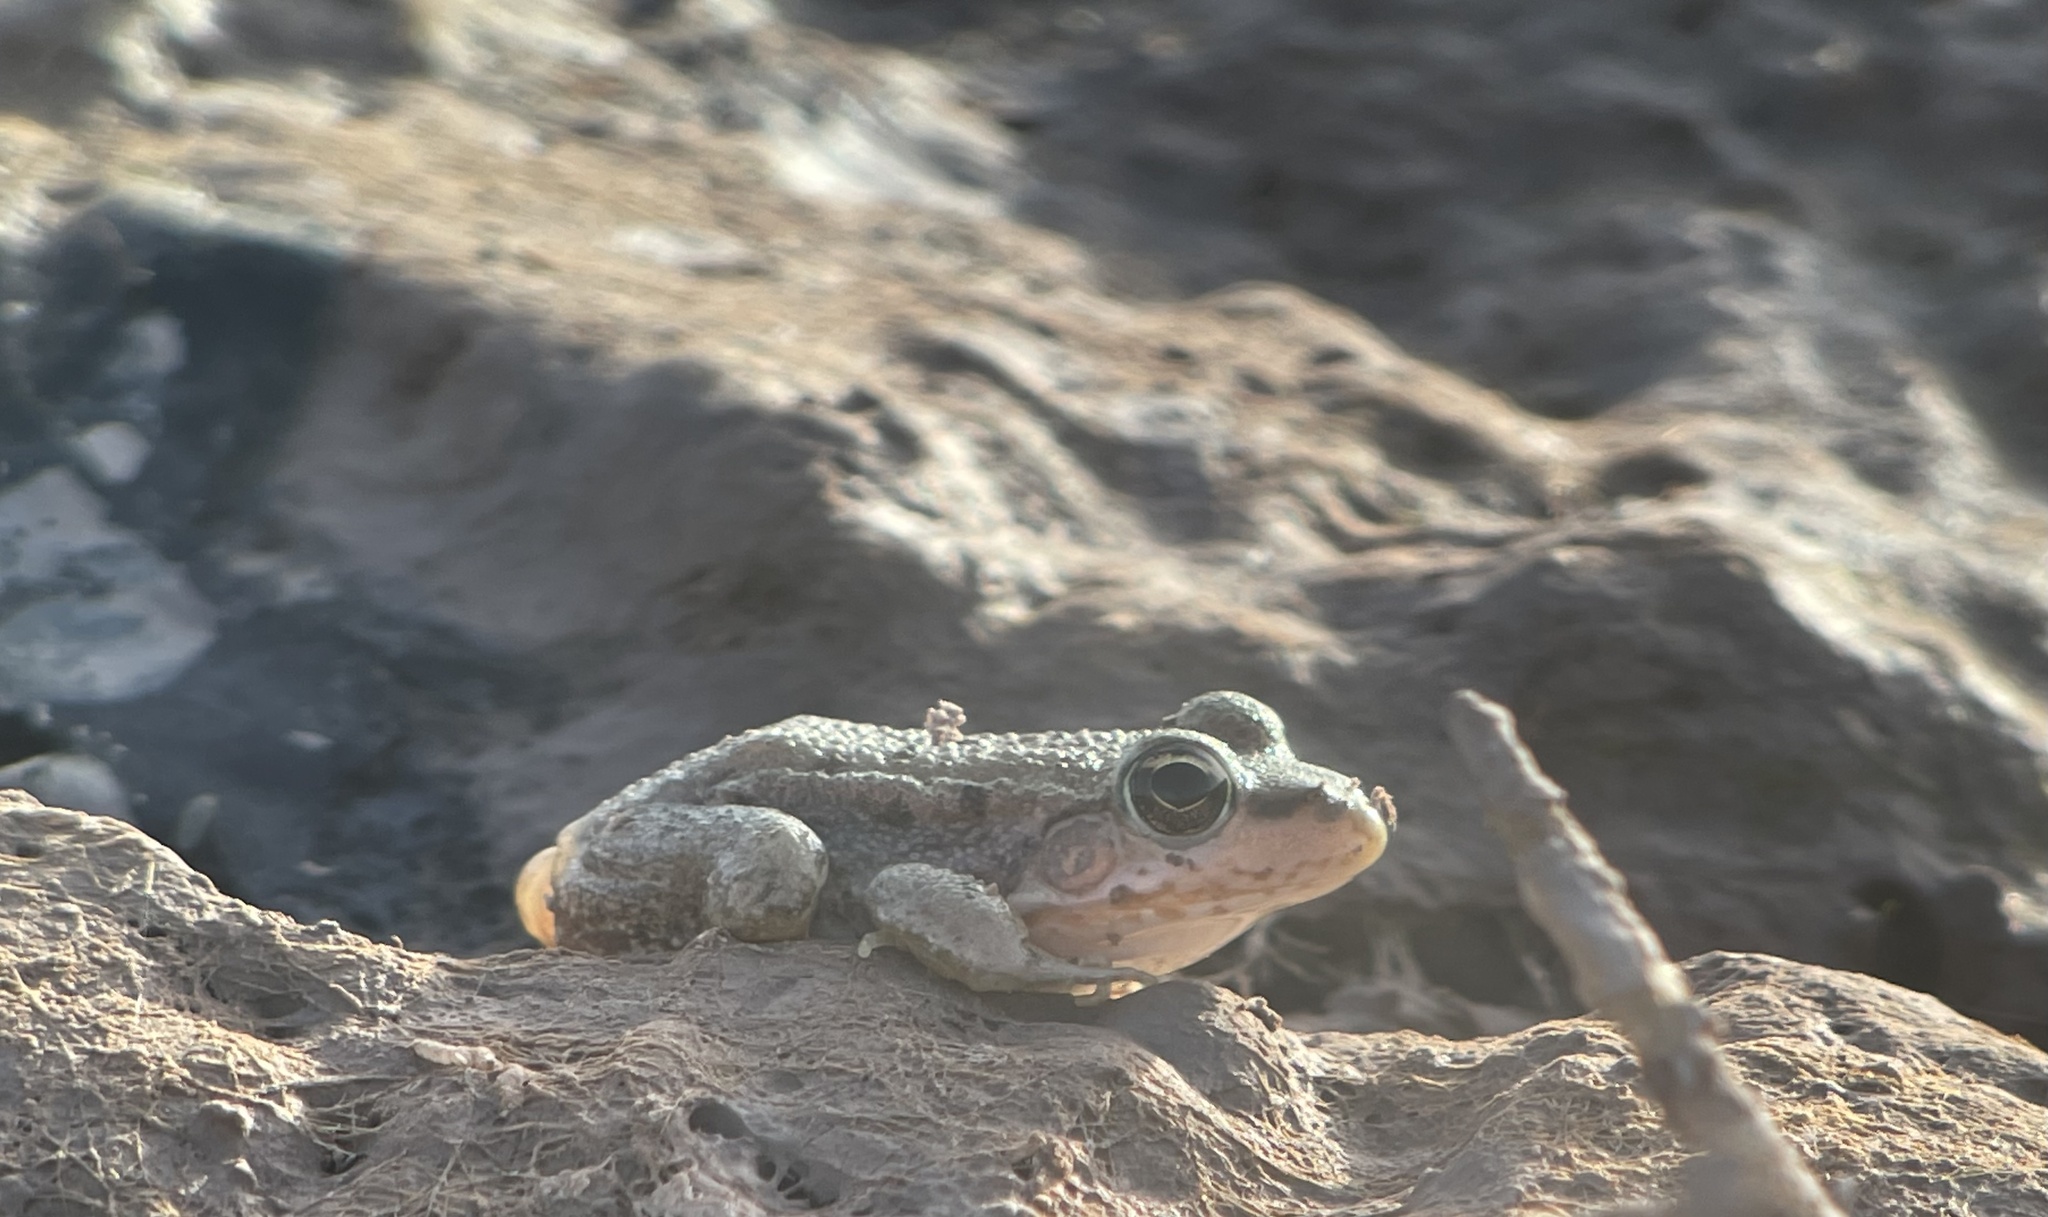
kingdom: Animalia
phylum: Chordata
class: Amphibia
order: Anura
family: Ranidae
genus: Pelophylax
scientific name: Pelophylax saharicus
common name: Sahara frog
